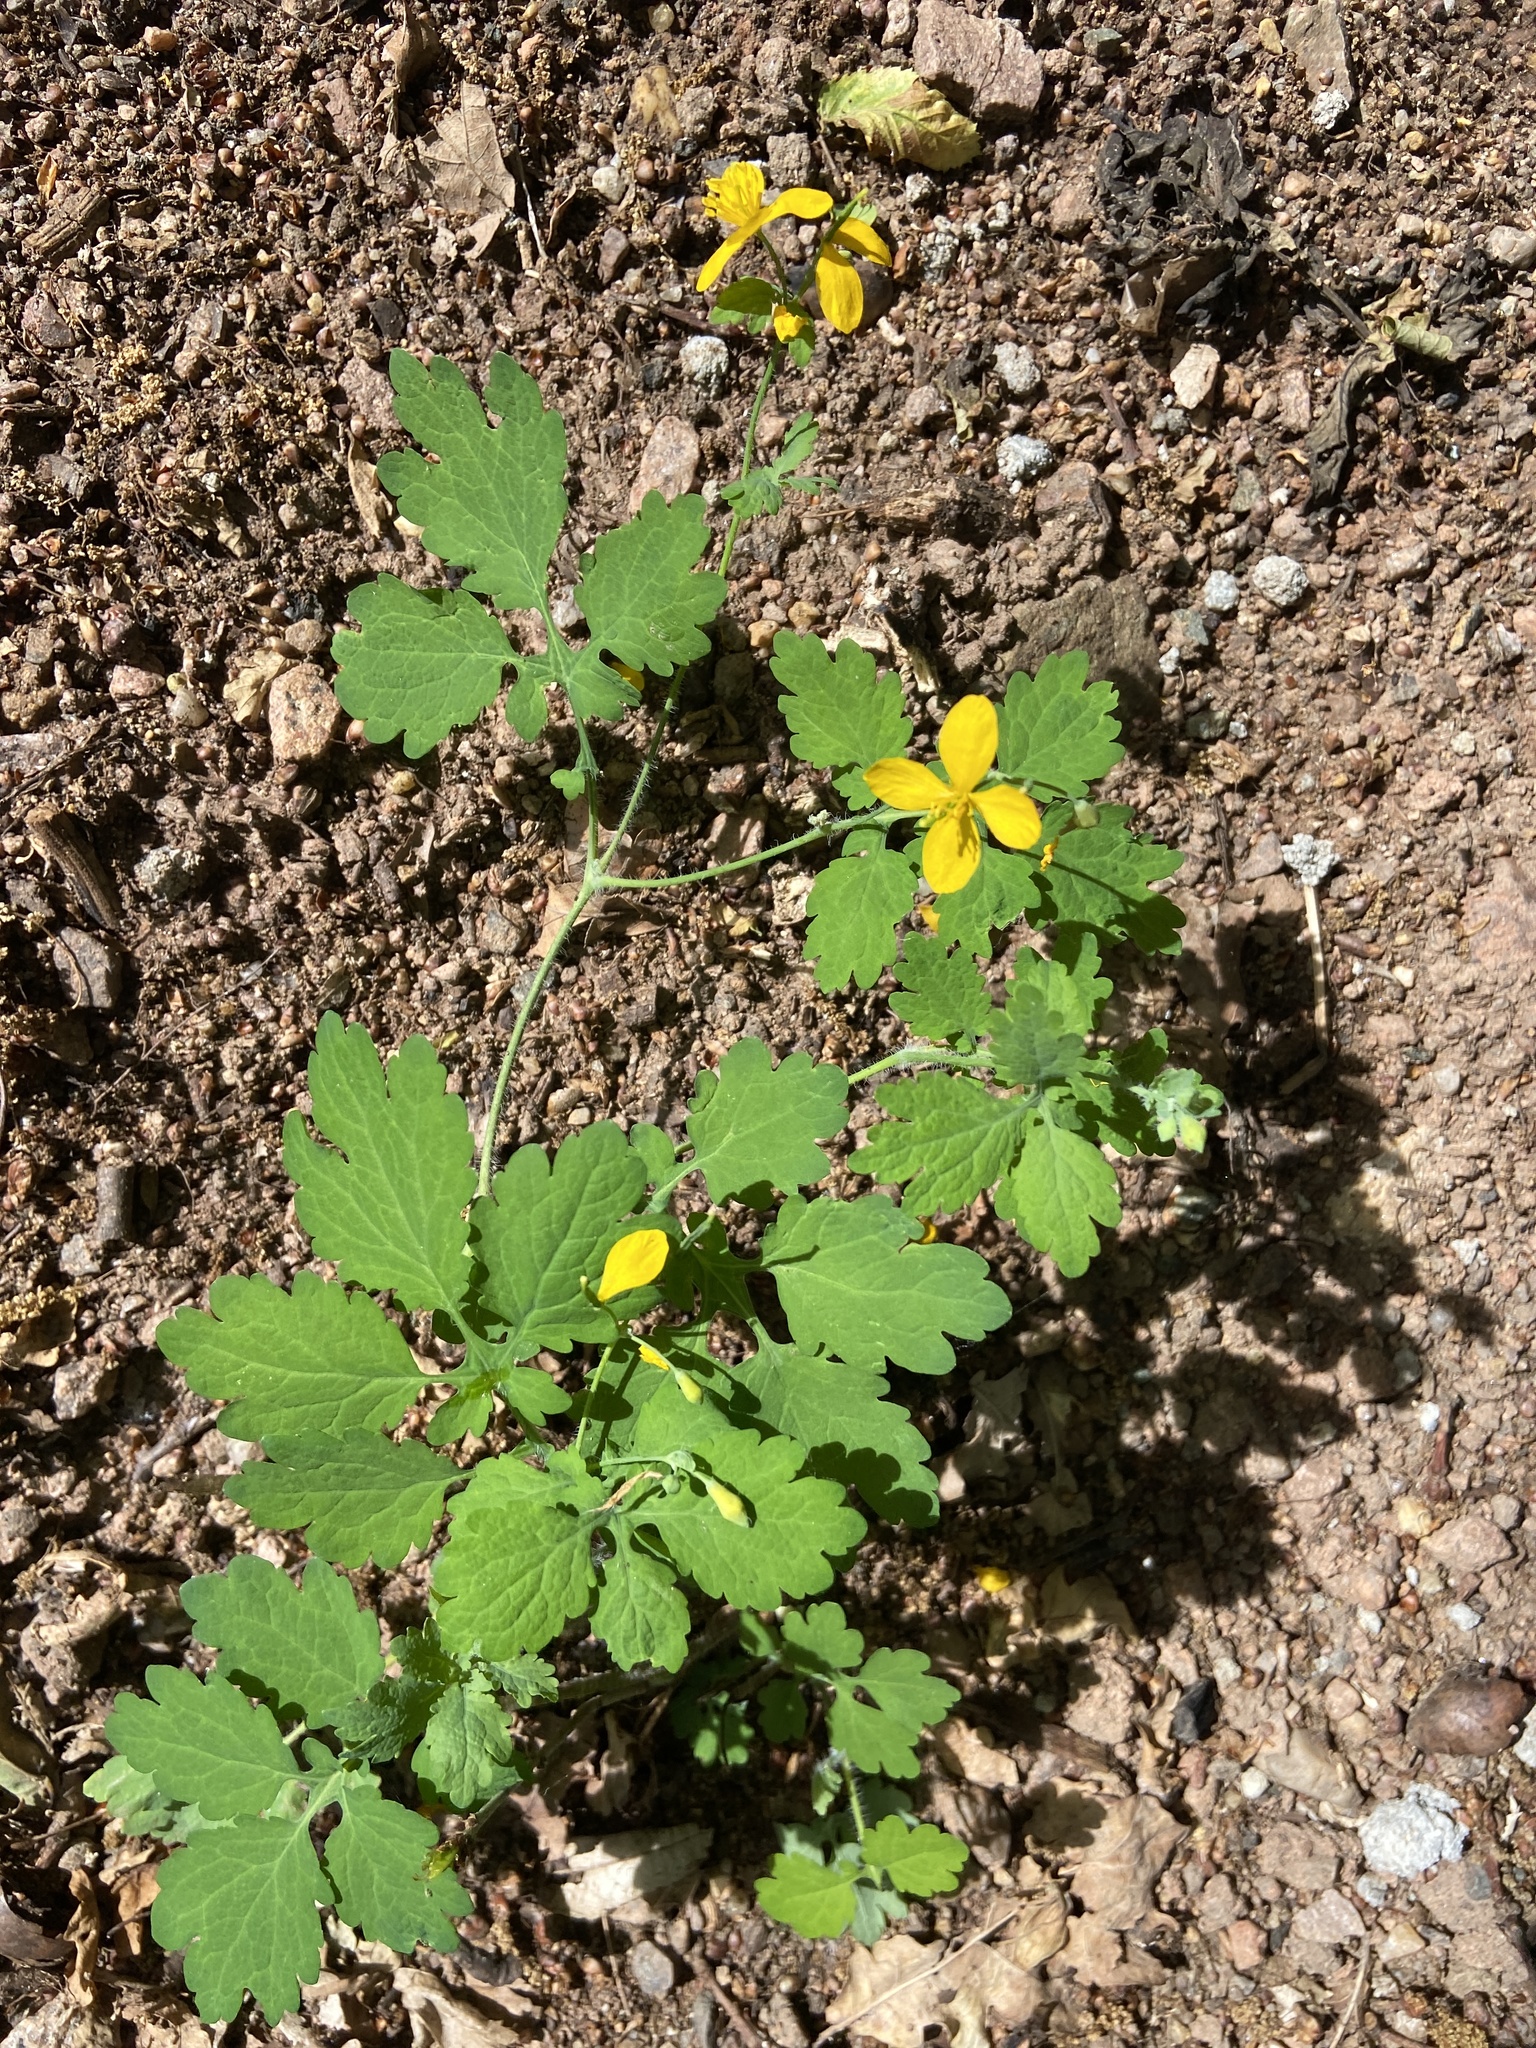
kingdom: Plantae
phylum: Tracheophyta
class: Magnoliopsida
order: Ranunculales
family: Papaveraceae
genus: Chelidonium
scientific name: Chelidonium majus
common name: Greater celandine
